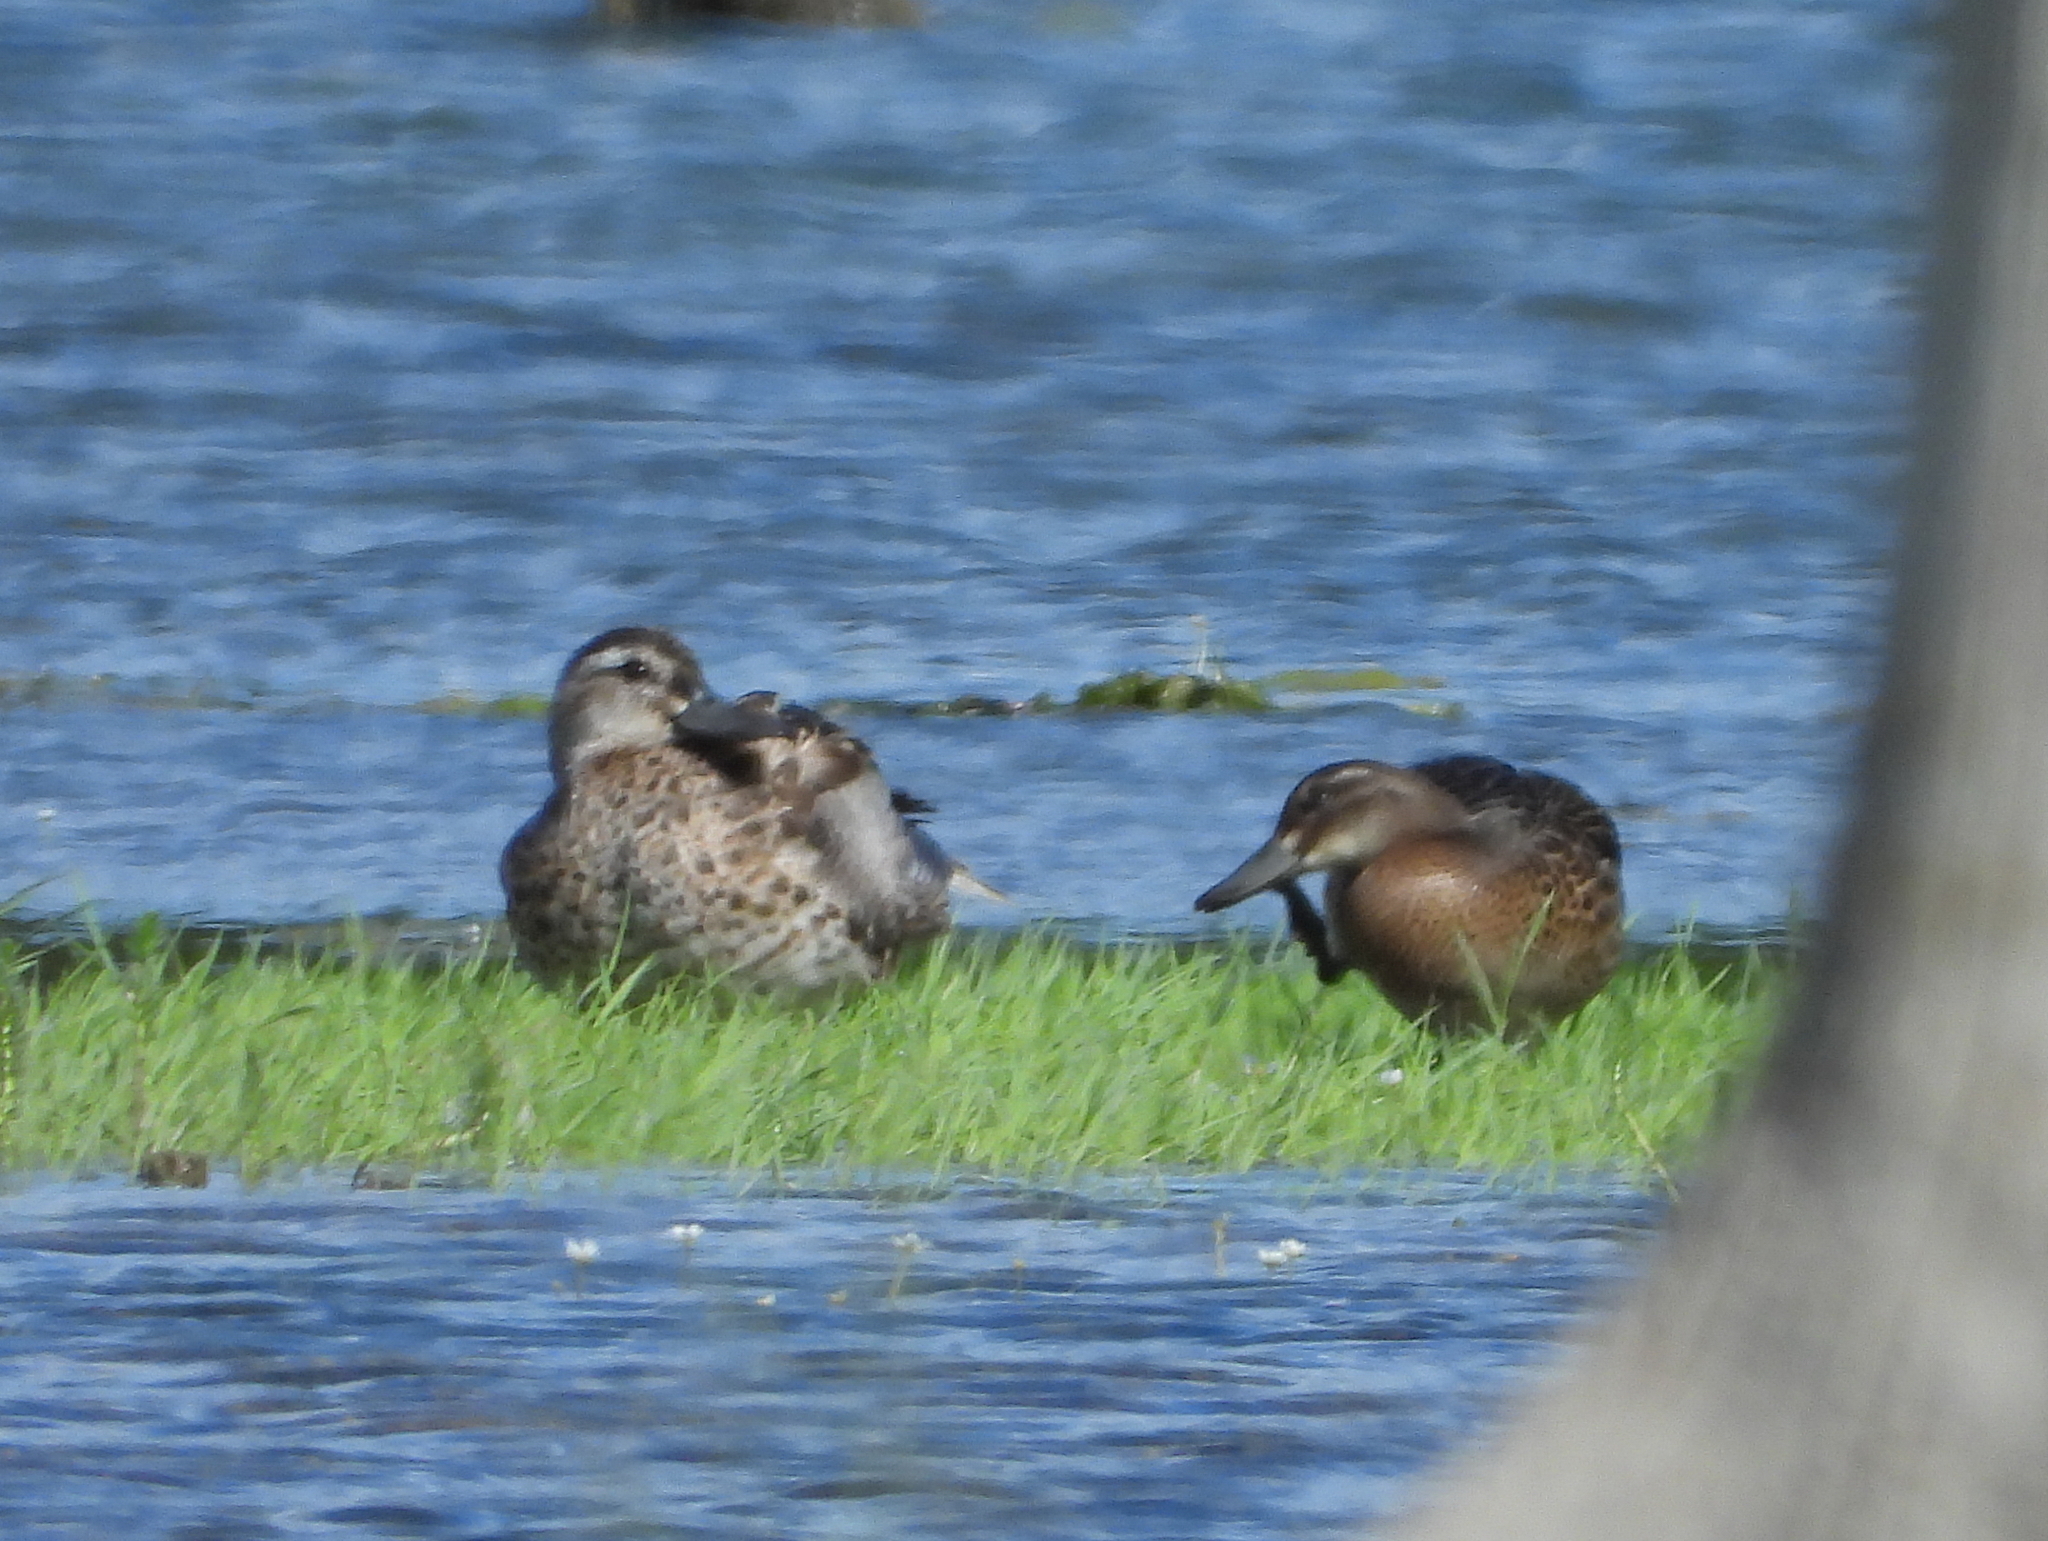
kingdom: Animalia
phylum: Chordata
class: Aves
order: Anseriformes
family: Anatidae
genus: Spatula
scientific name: Spatula querquedula
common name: Garganey
